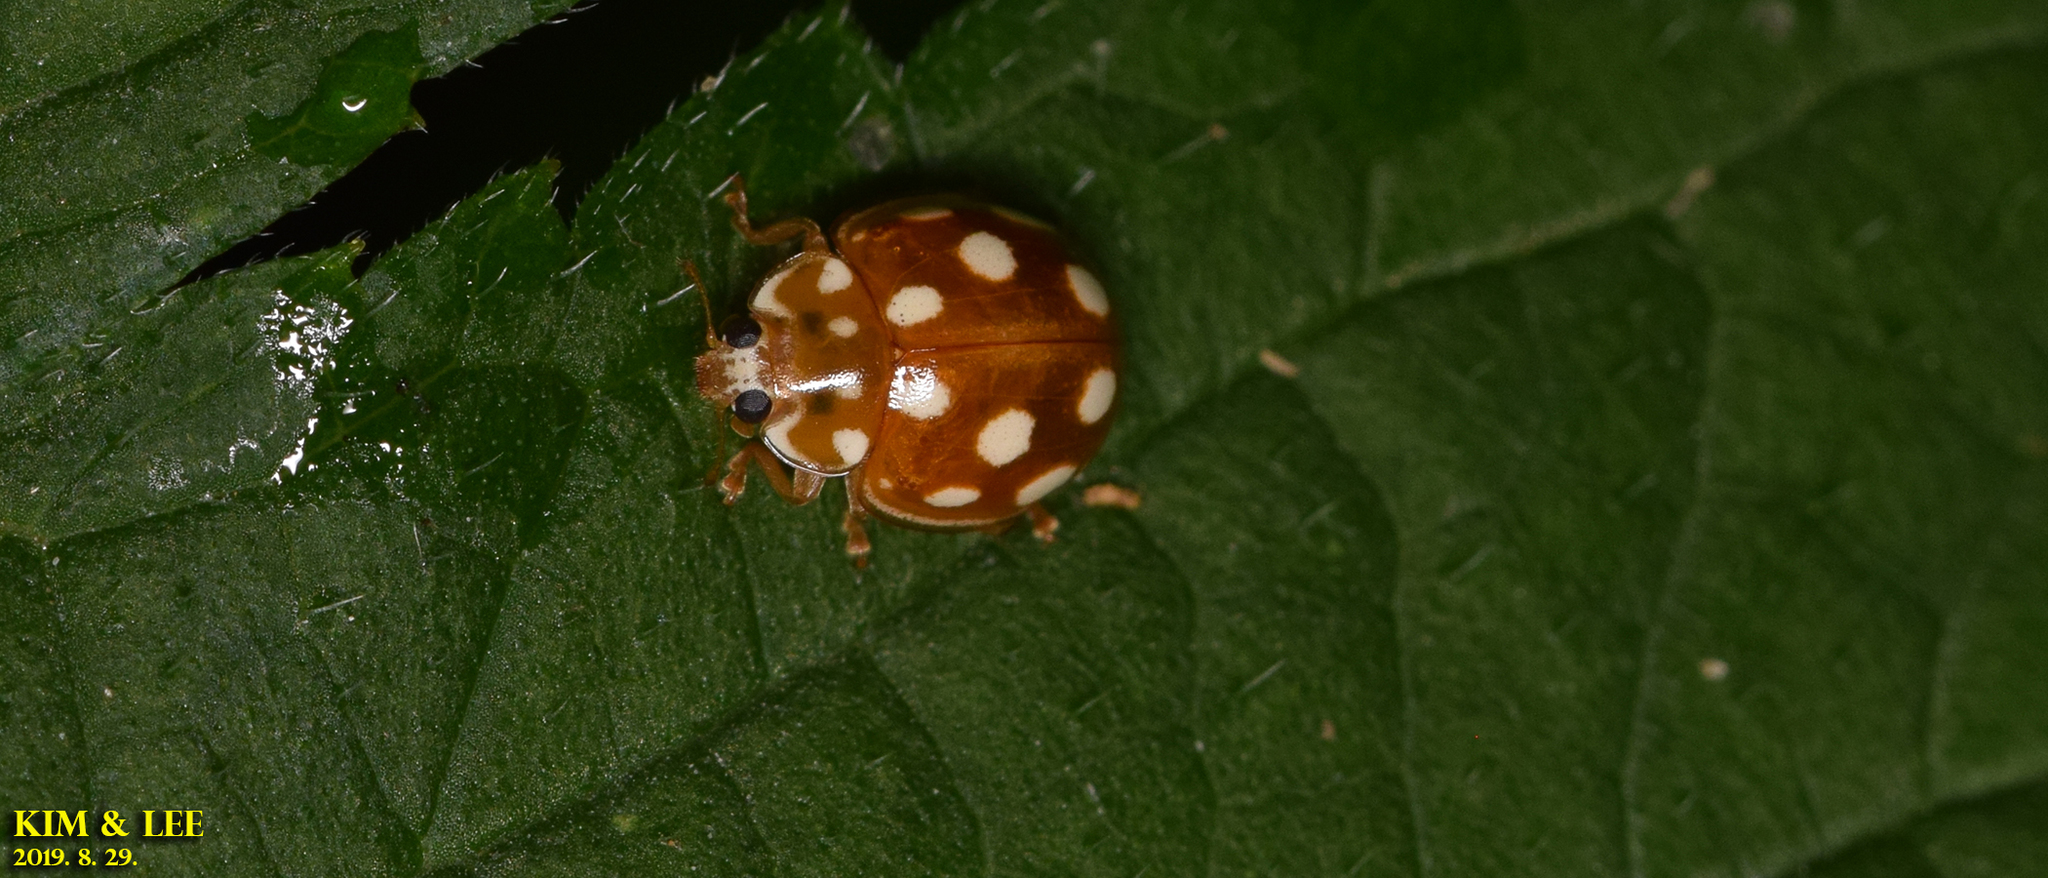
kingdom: Animalia
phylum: Arthropoda
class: Insecta
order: Coleoptera
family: Coccinellidae
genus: Calvia
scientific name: Calvia muiri
